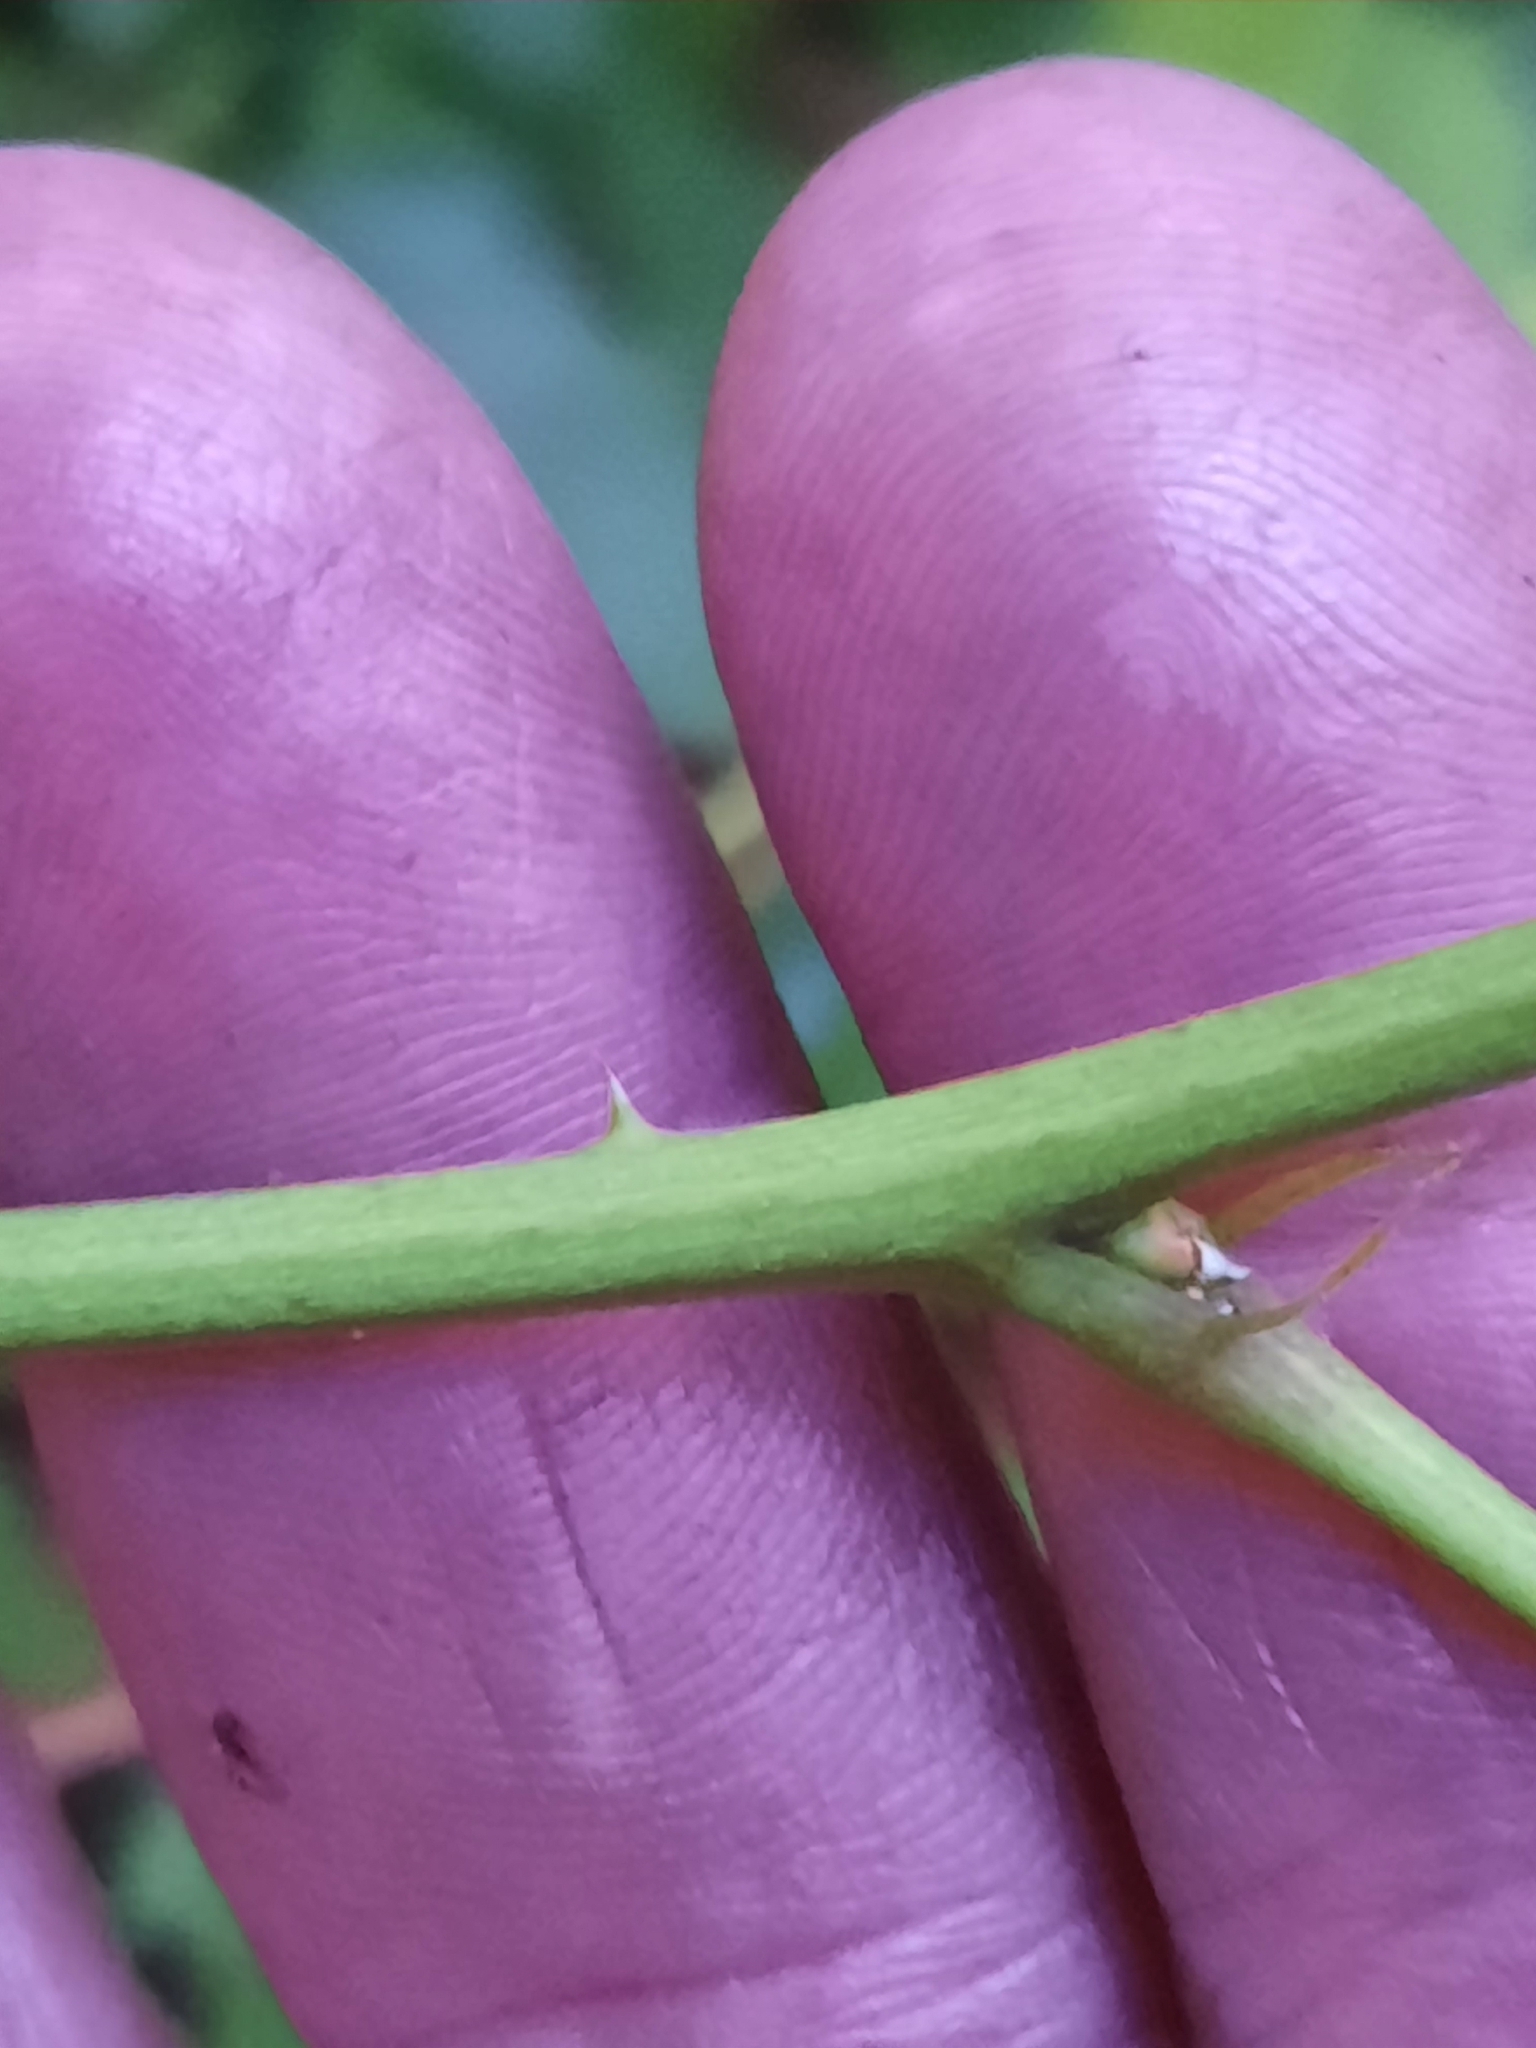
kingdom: Plantae
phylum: Tracheophyta
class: Magnoliopsida
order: Rosales
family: Rosaceae
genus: Rubus
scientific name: Rubus allegheniensis
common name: Allegheny blackberry
